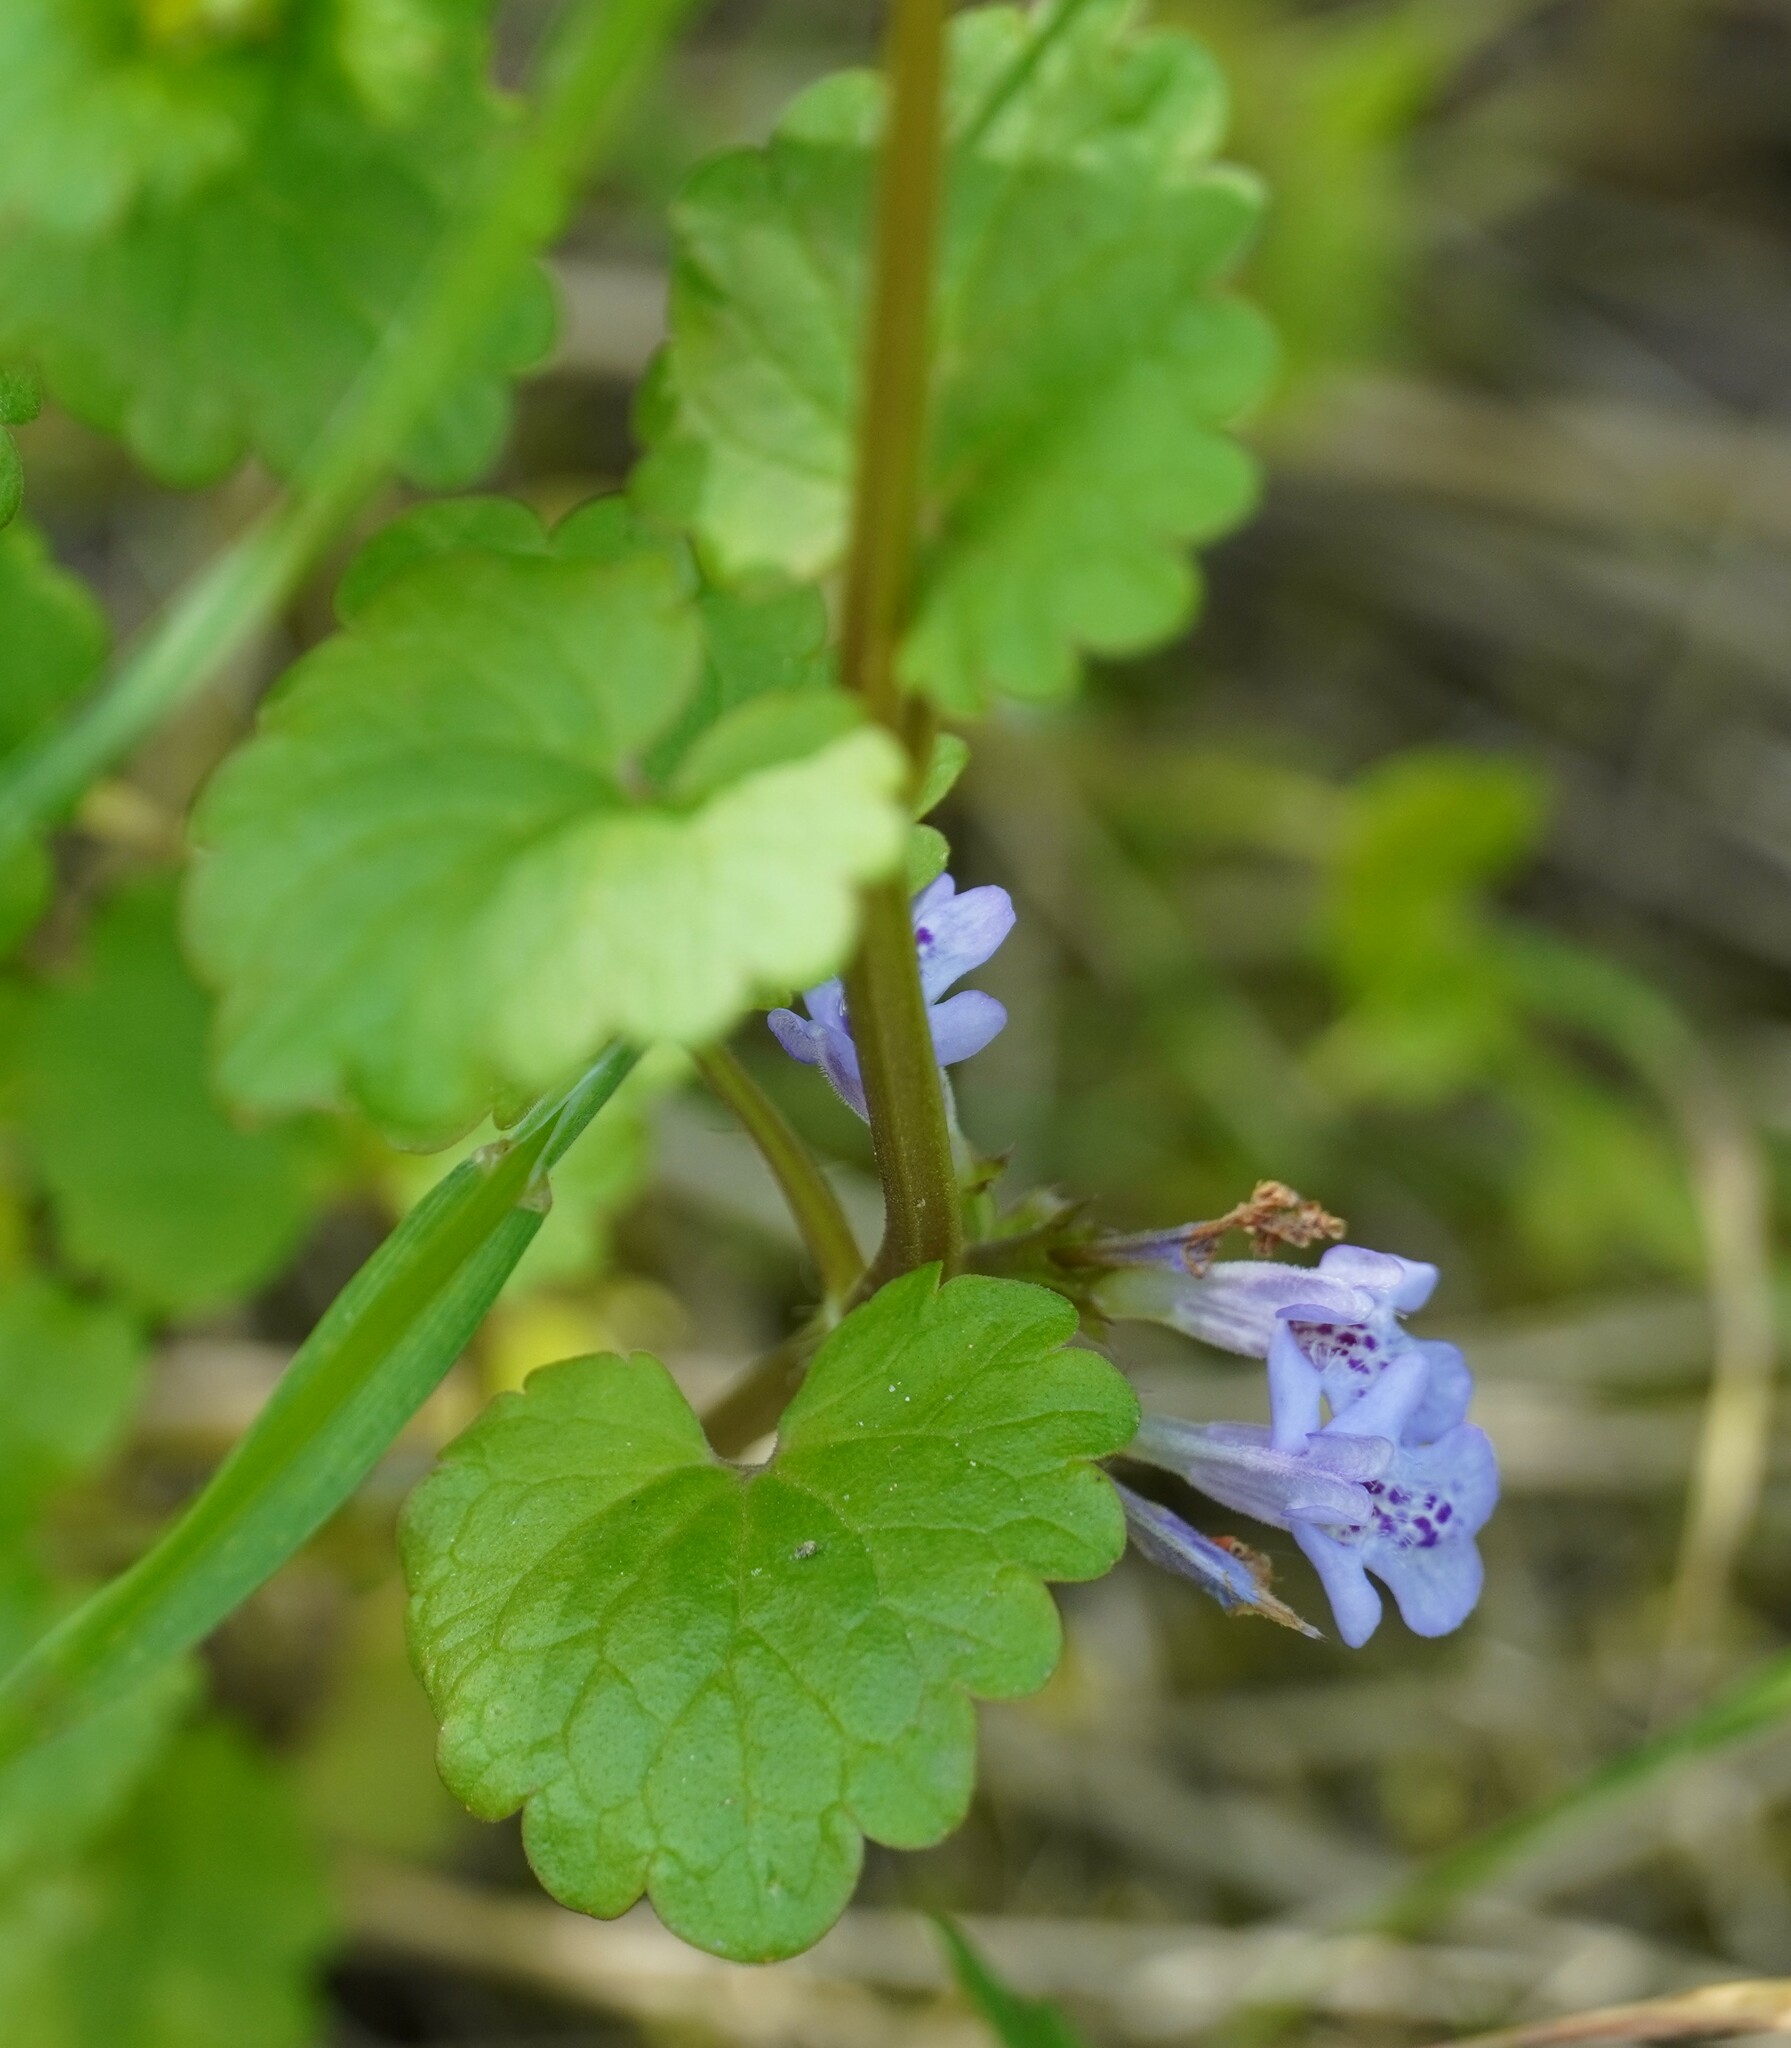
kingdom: Plantae
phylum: Tracheophyta
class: Magnoliopsida
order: Lamiales
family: Lamiaceae
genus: Glechoma
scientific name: Glechoma hederacea
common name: Ground ivy
